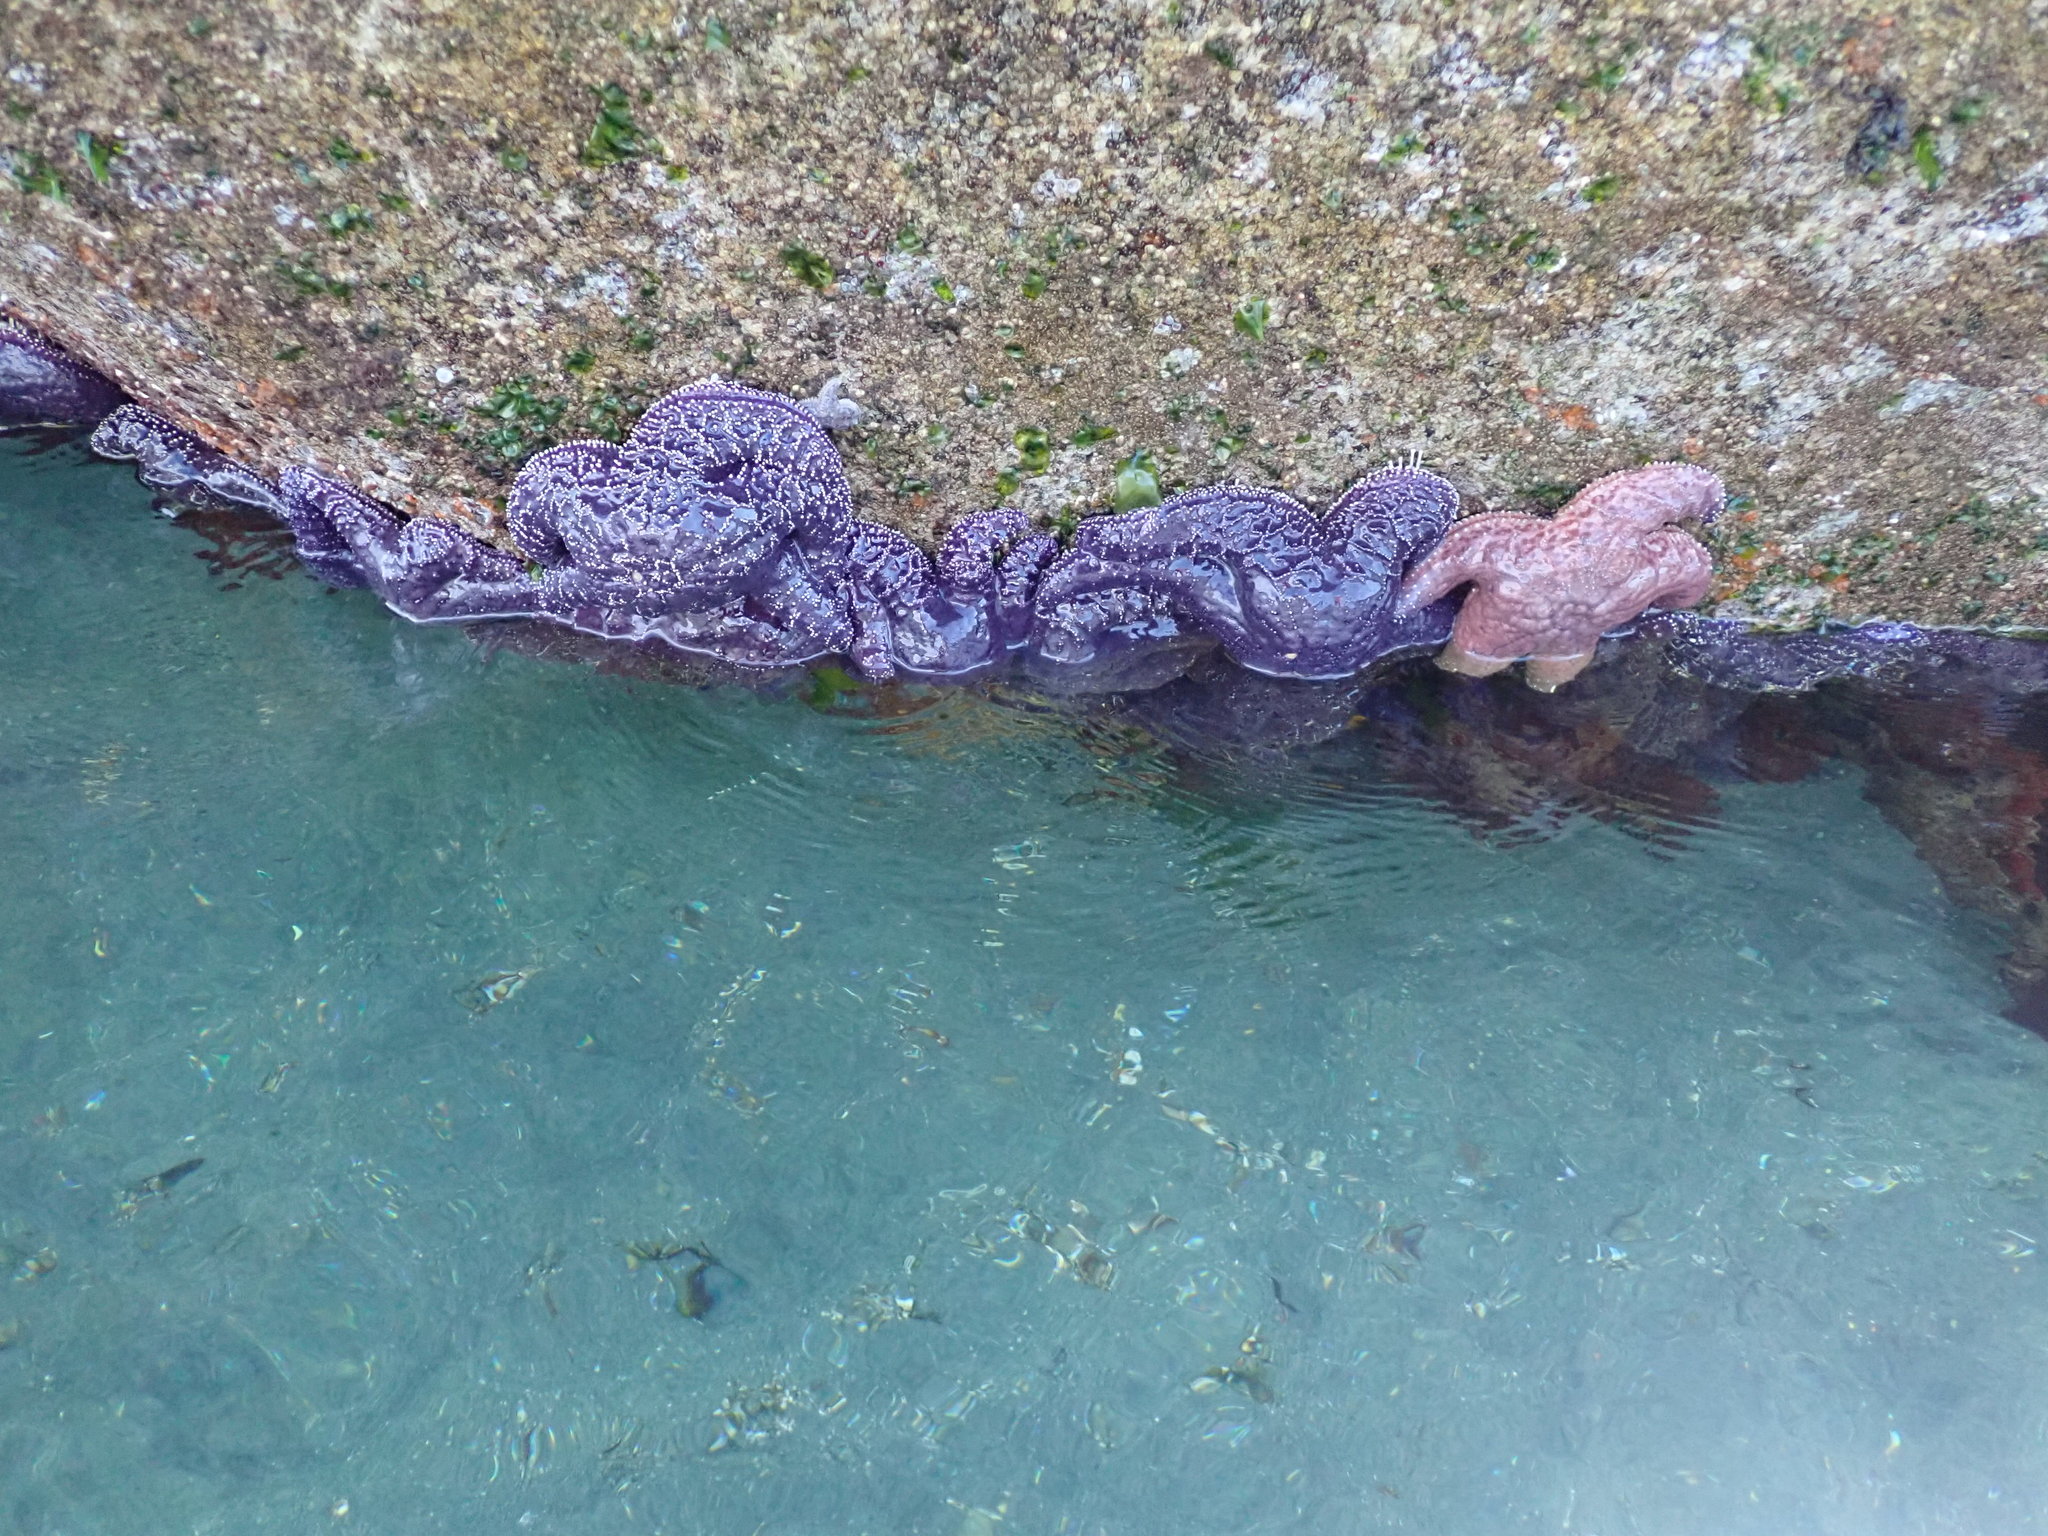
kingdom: Animalia
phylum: Echinodermata
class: Asteroidea
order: Forcipulatida
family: Asteriidae
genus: Pisaster
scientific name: Pisaster ochraceus
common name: Ochre stars
